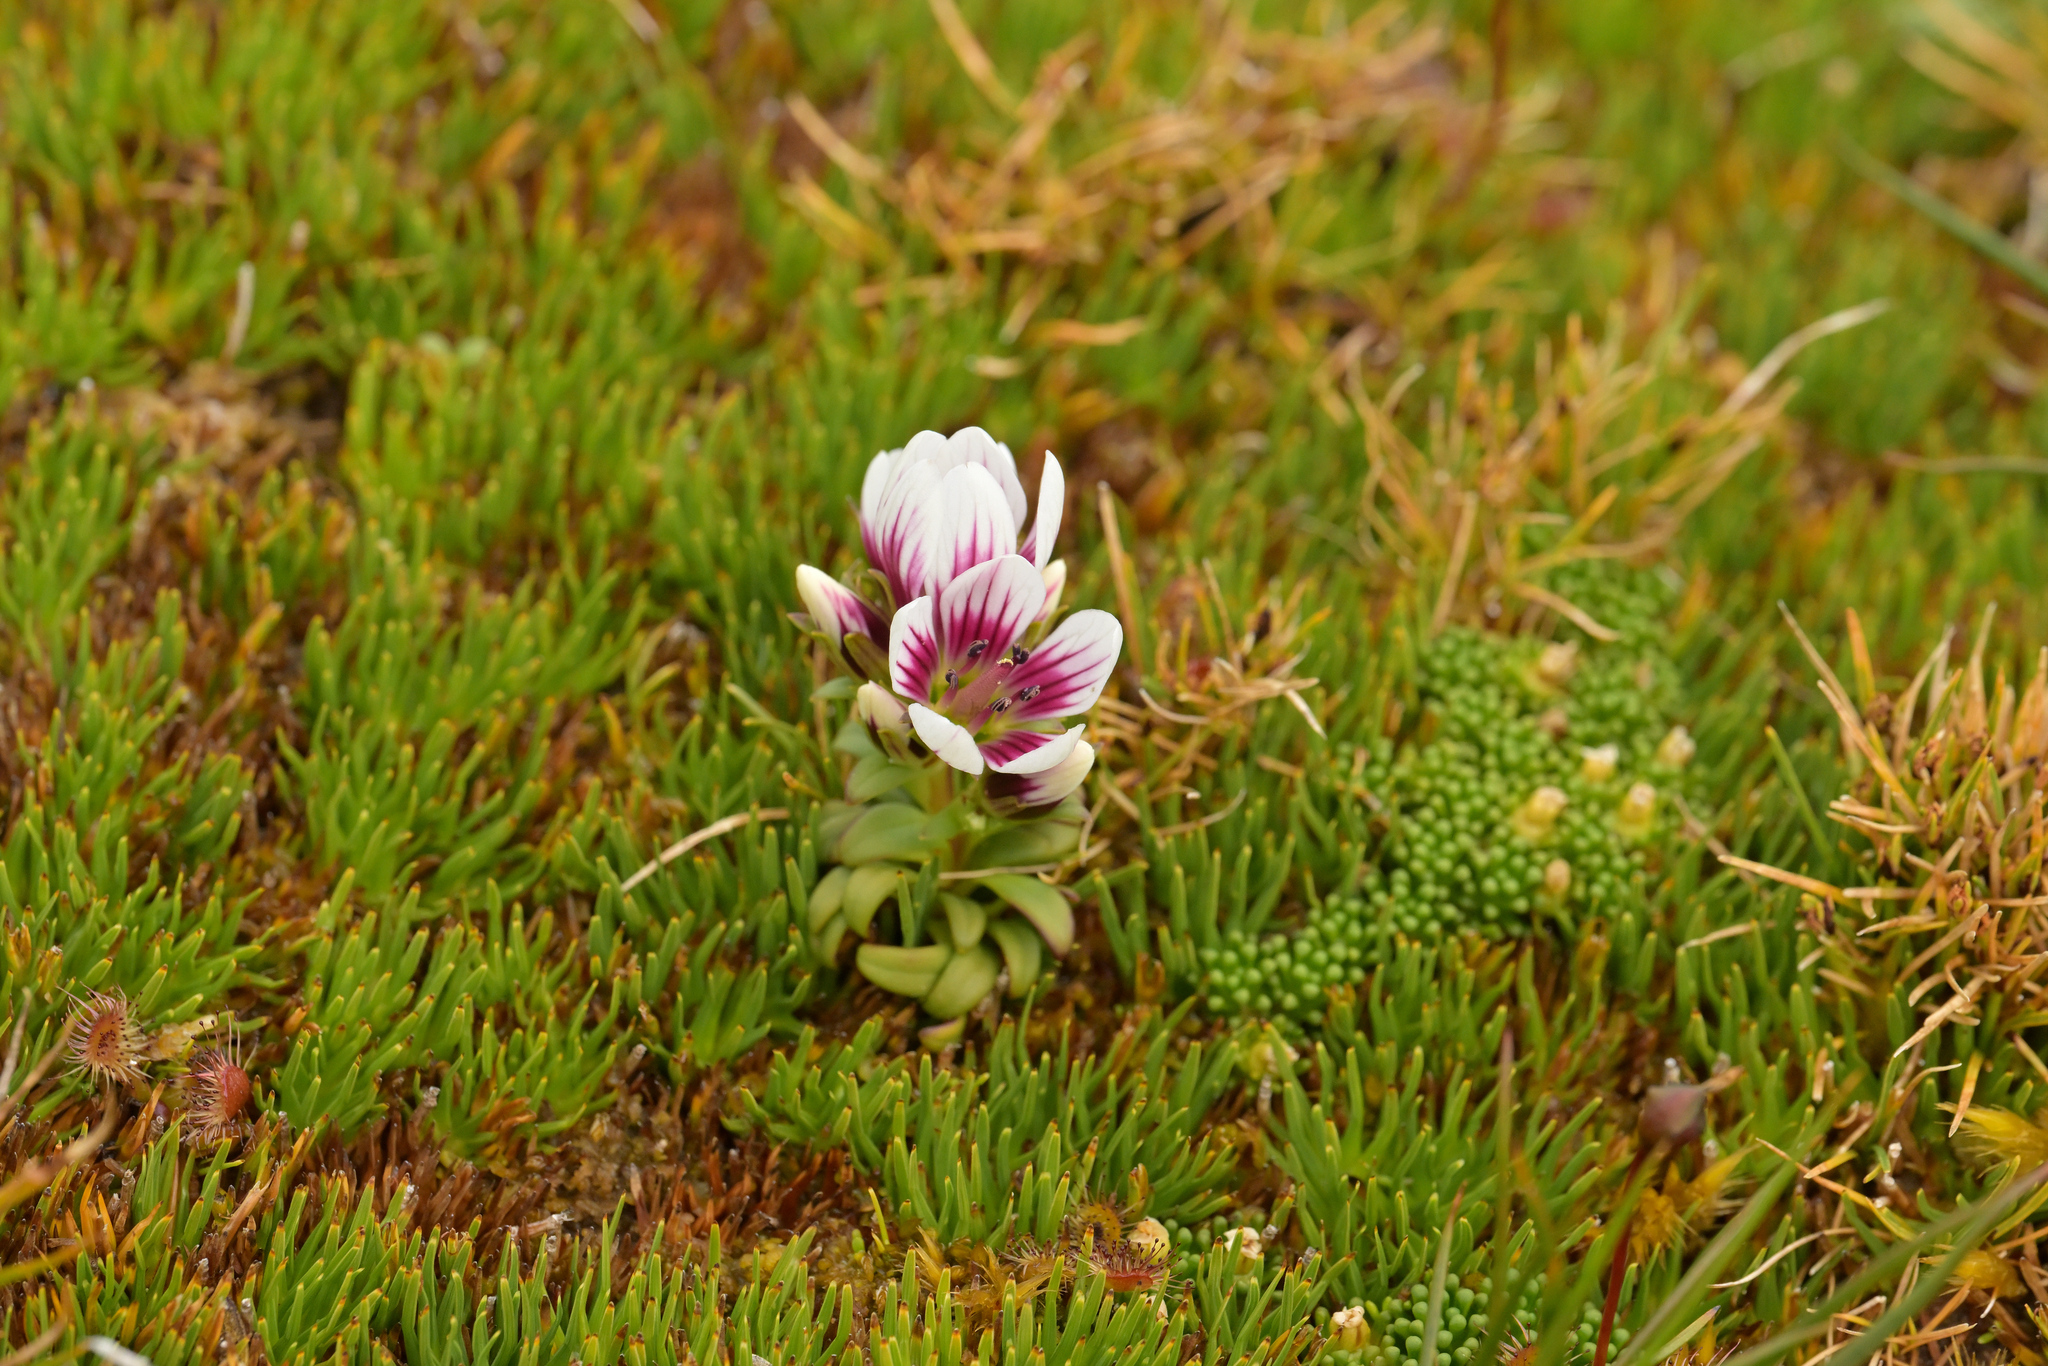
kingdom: Plantae
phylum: Tracheophyta
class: Magnoliopsida
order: Gentianales
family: Gentianaceae
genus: Gentianella
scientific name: Gentianella concinna
